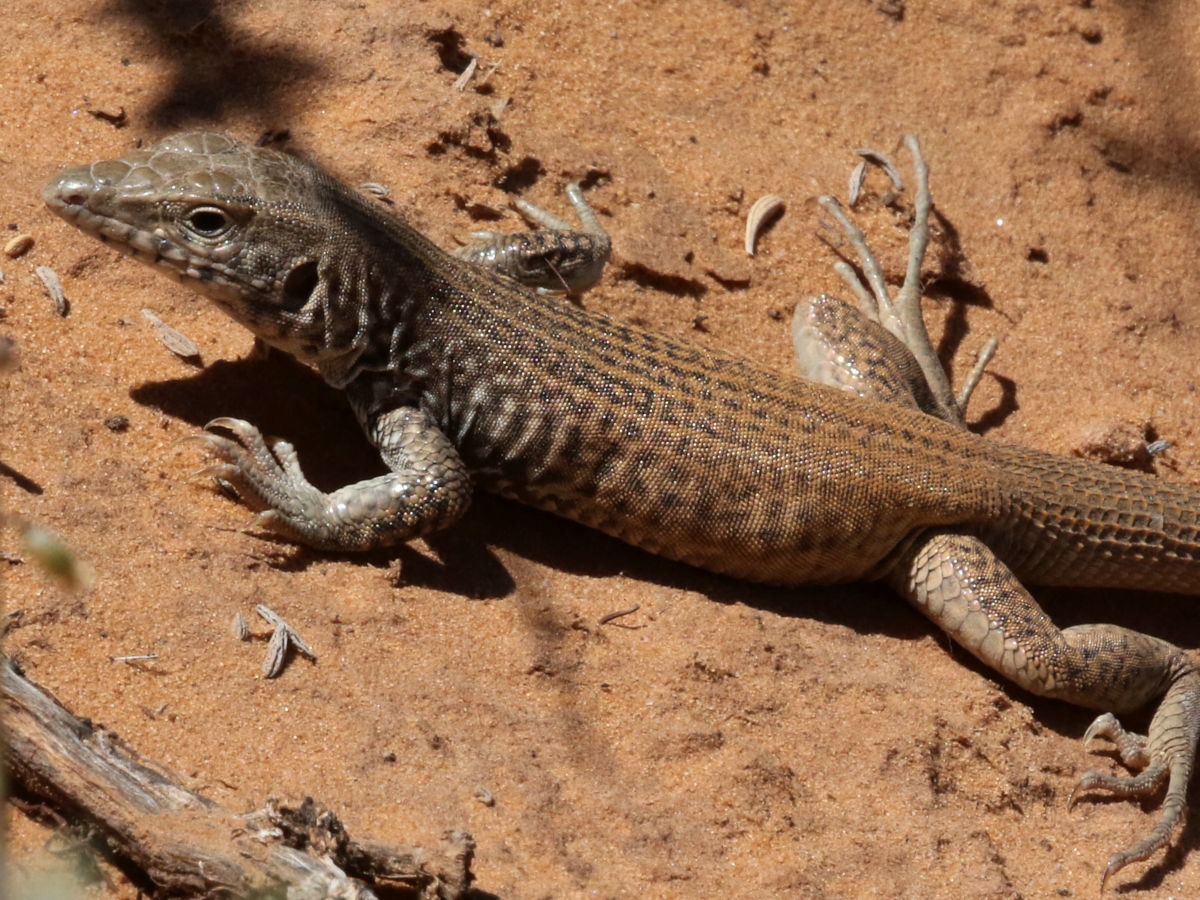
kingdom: Animalia
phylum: Chordata
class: Squamata
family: Teiidae
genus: Aspidoscelis
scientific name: Aspidoscelis tigris
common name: Tiger whiptail
